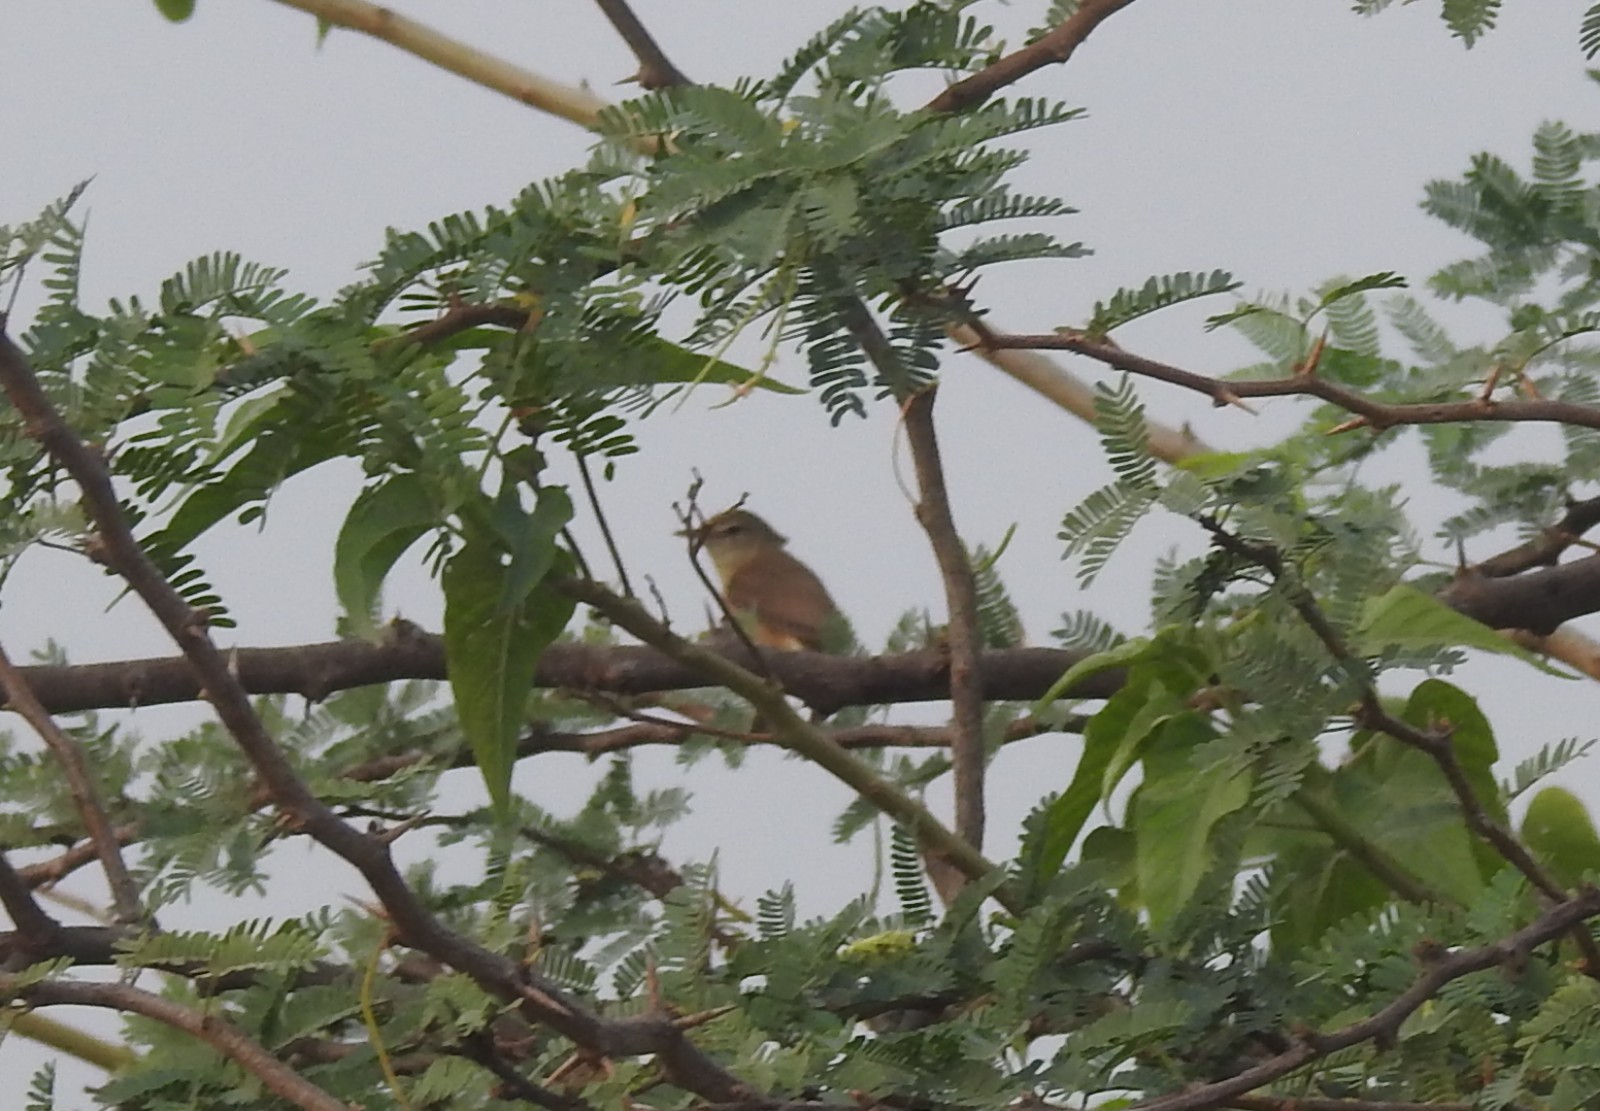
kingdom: Animalia
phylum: Chordata
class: Aves
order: Passeriformes
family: Acrocephalidae
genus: Acrocephalus
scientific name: Acrocephalus stentoreus
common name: Clamorous reed warbler
